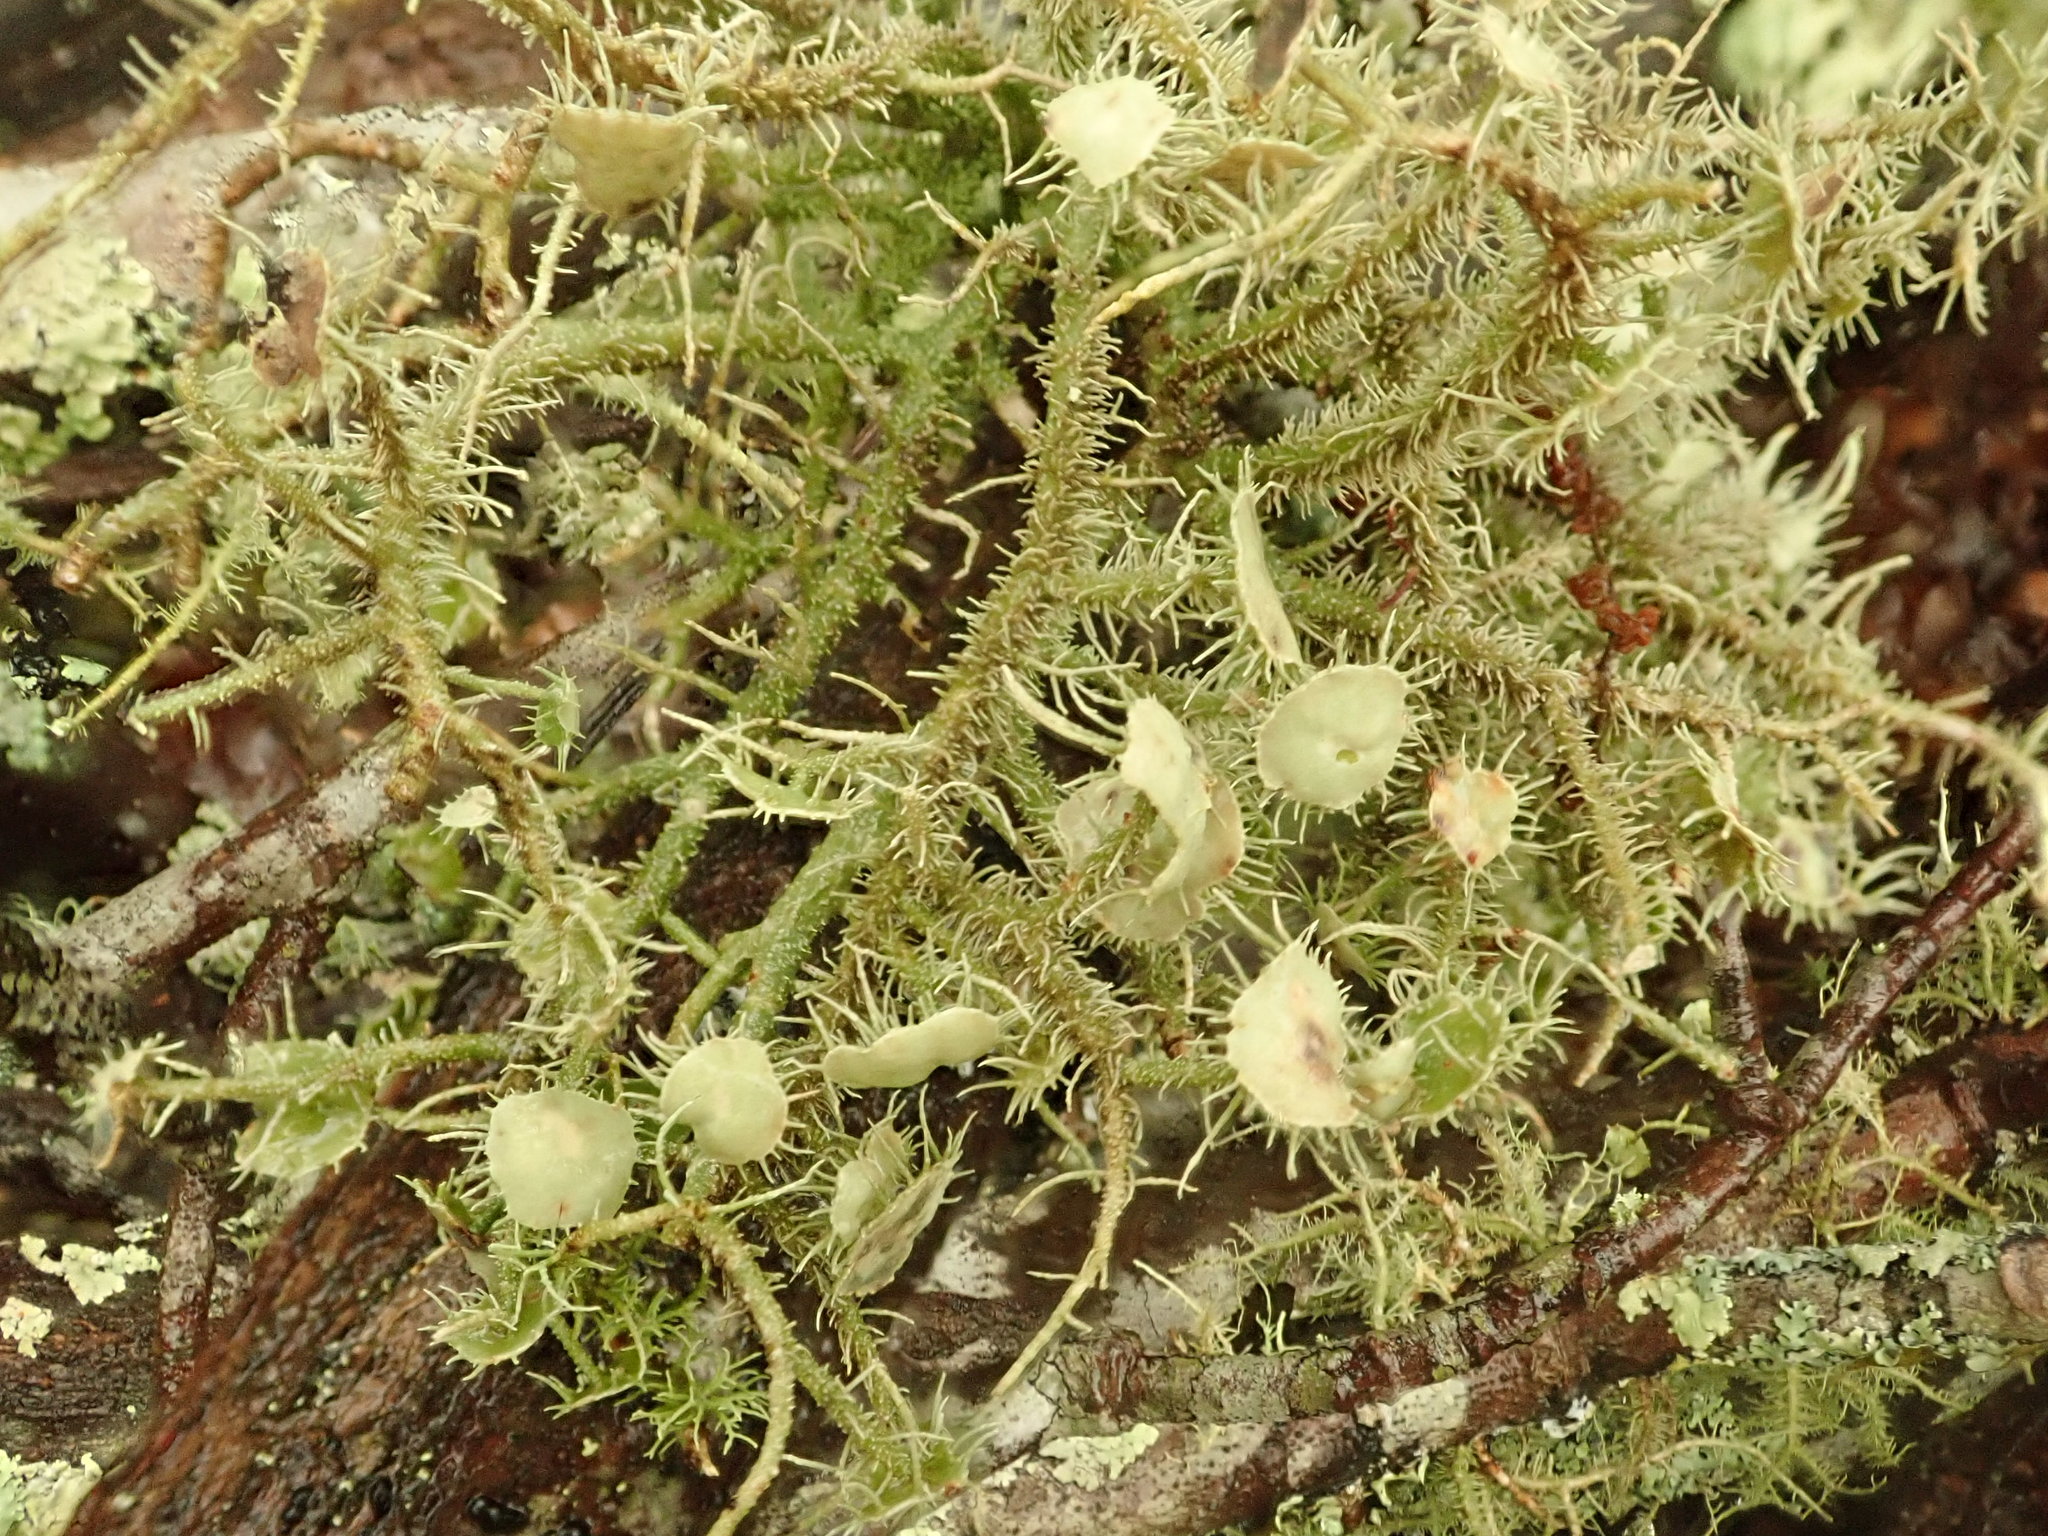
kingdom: Fungi
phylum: Ascomycota
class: Lecanoromycetes
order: Lecanorales
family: Parmeliaceae
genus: Usnea
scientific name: Usnea strigosa
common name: Bushy beard lichen
